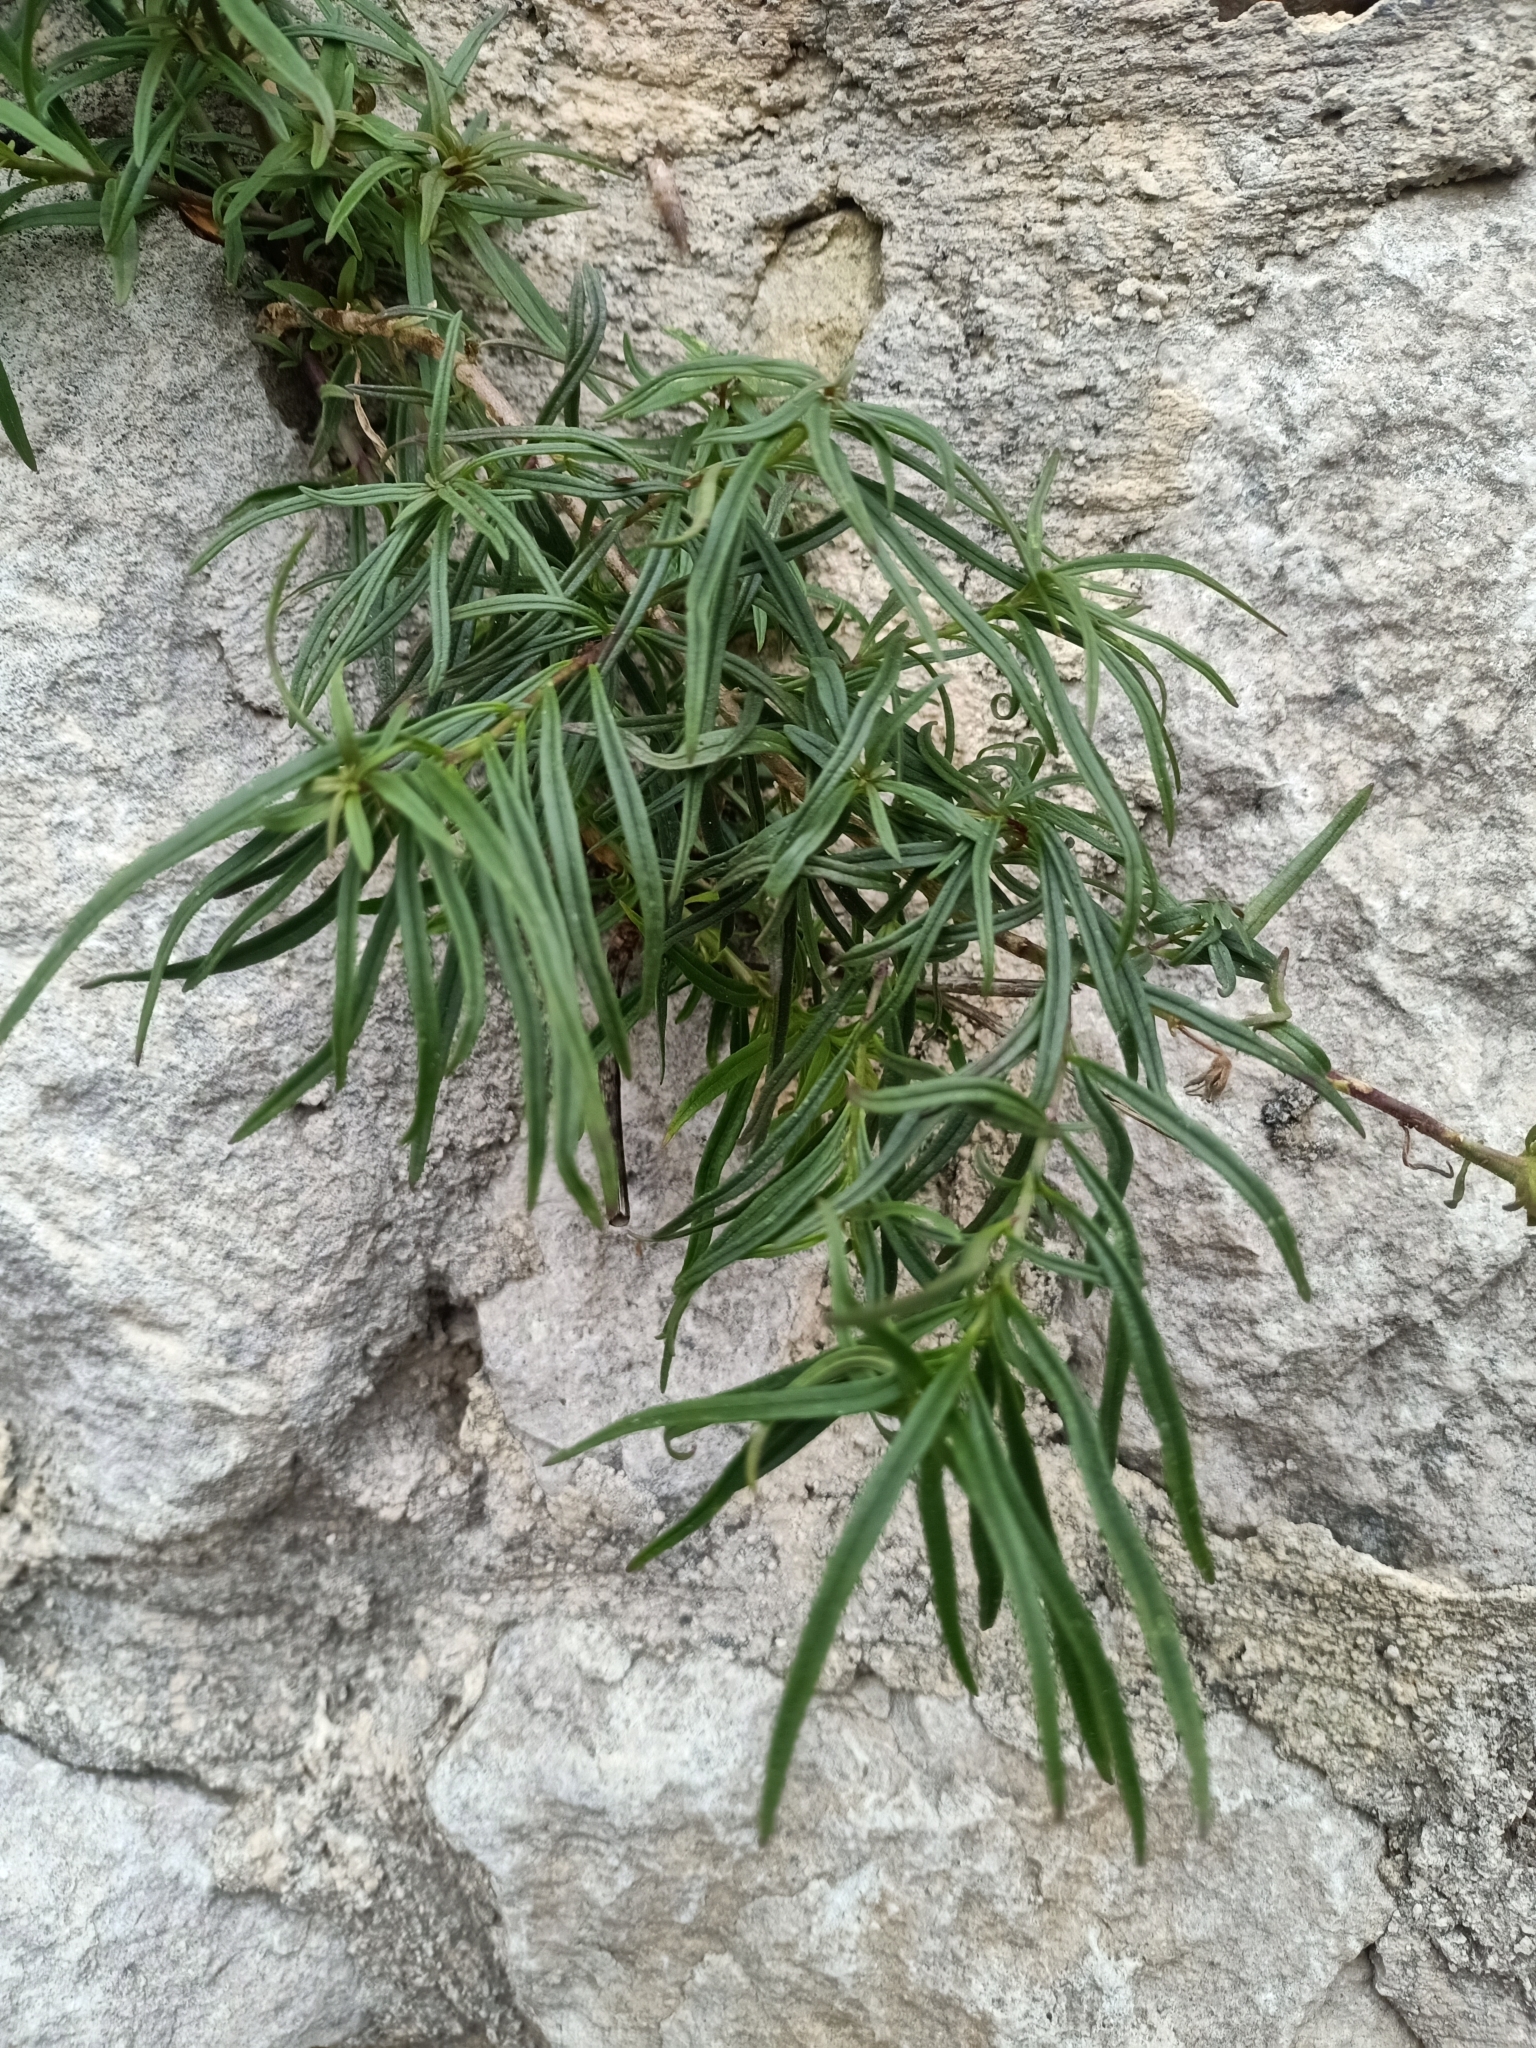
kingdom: Plantae
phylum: Tracheophyta
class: Magnoliopsida
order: Lamiales
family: Plantaginaceae
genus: Antirrhinum
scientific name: Antirrhinum siculum
